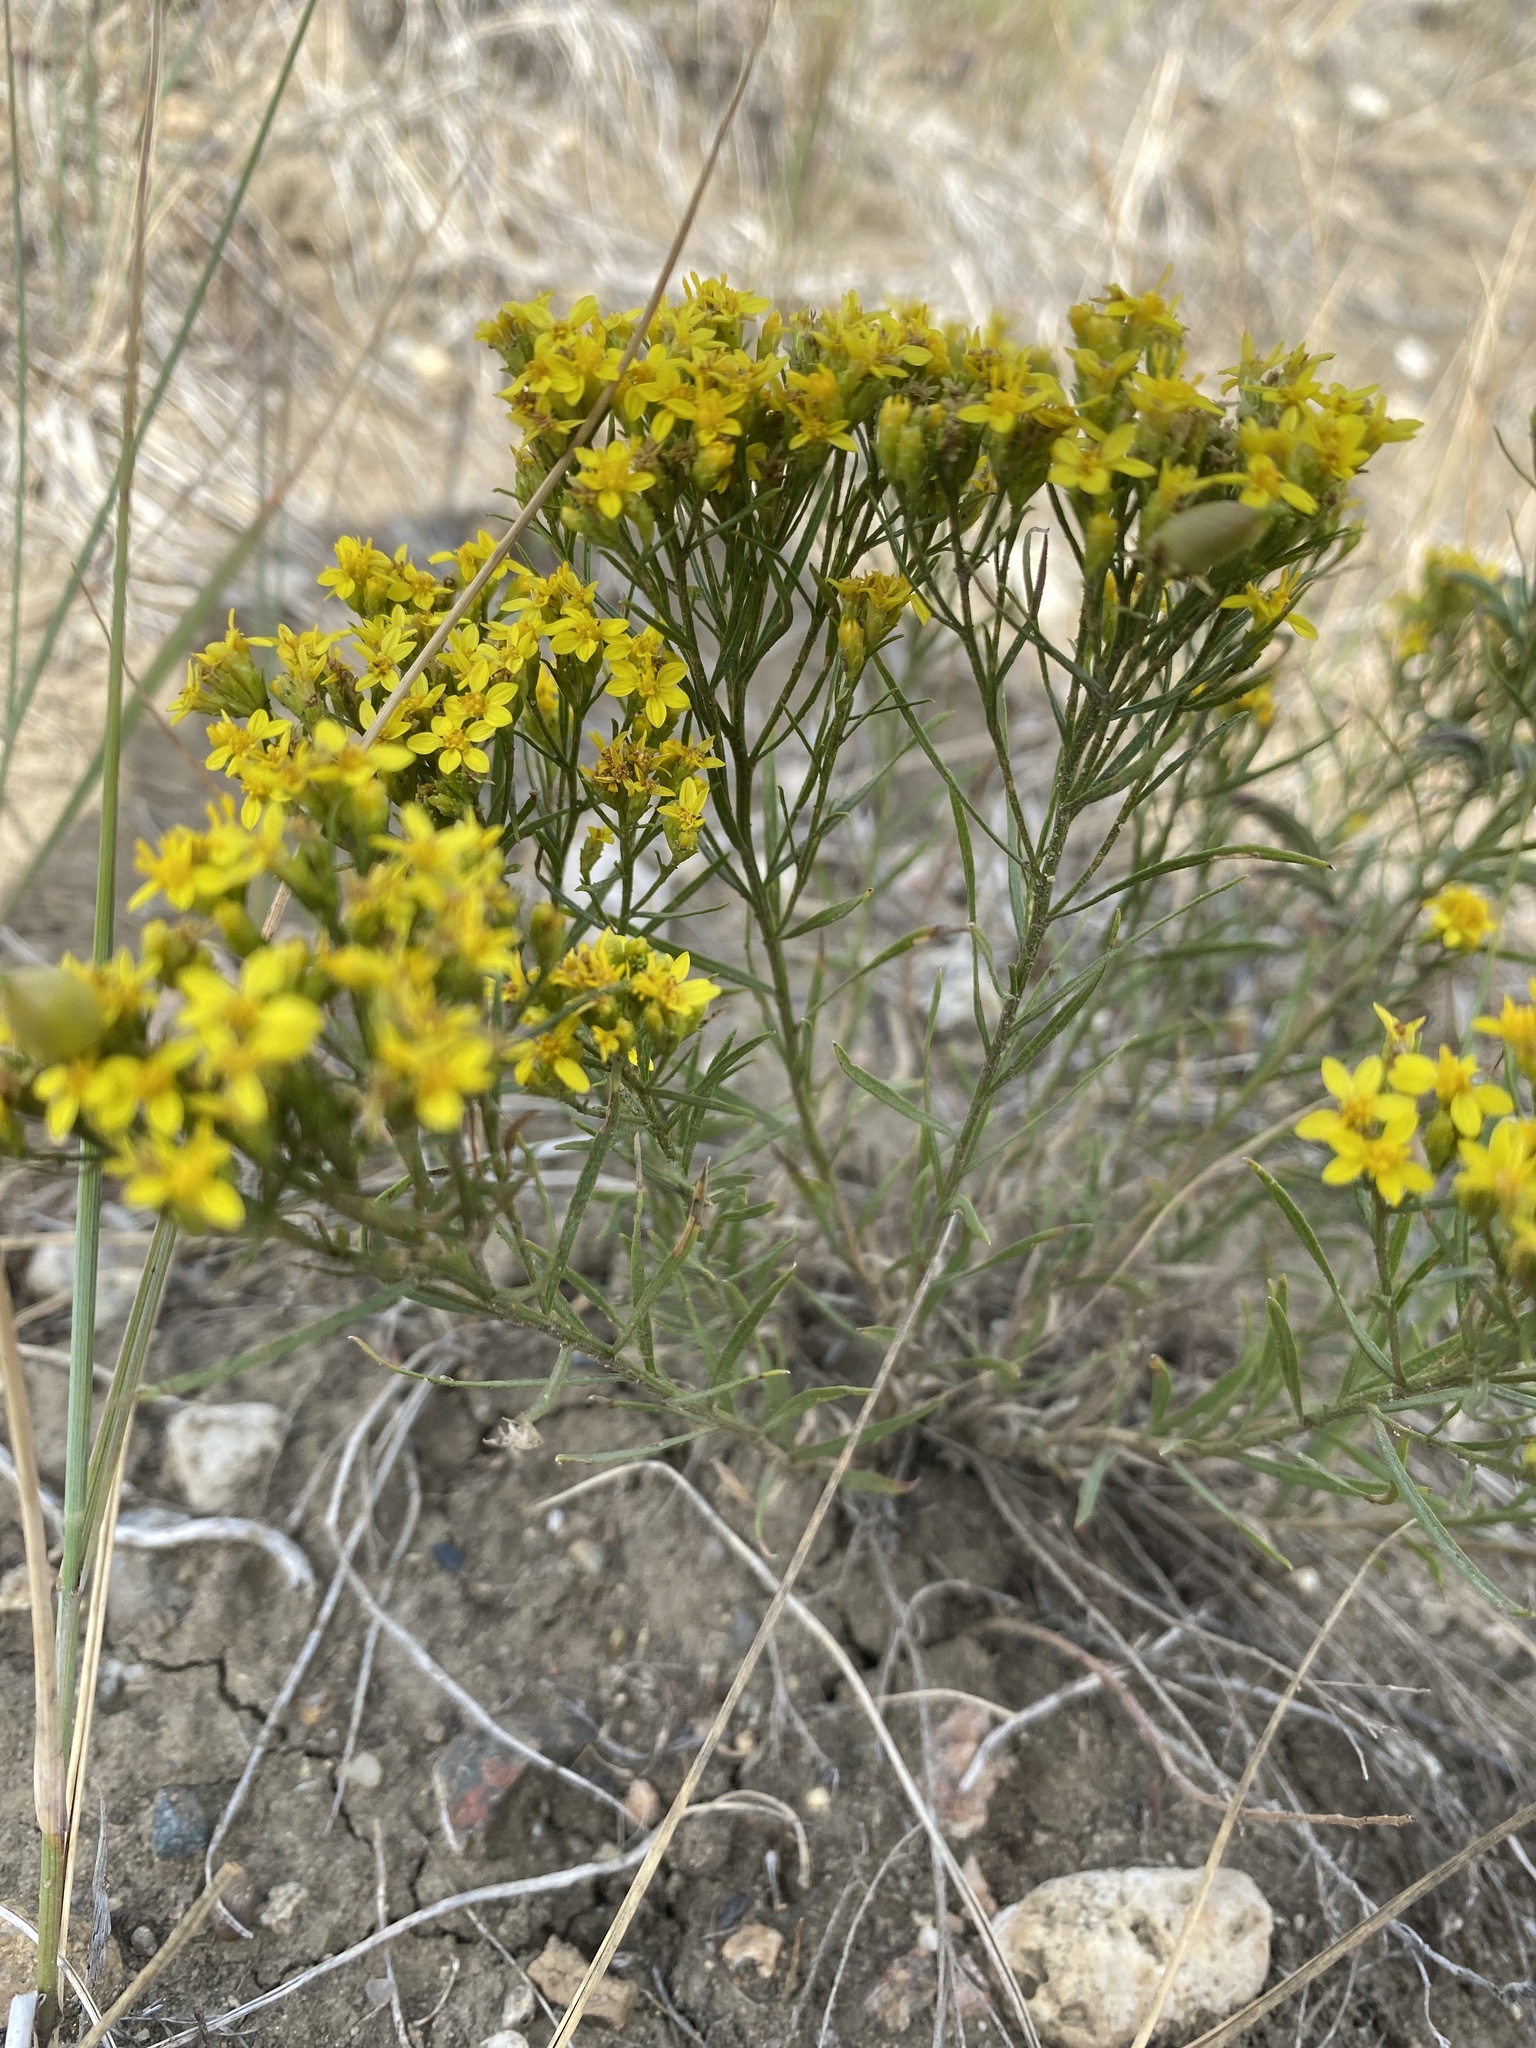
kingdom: Plantae
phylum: Tracheophyta
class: Magnoliopsida
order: Asterales
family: Asteraceae
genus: Gutierrezia
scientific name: Gutierrezia sarothrae
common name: Broom snakeweed
